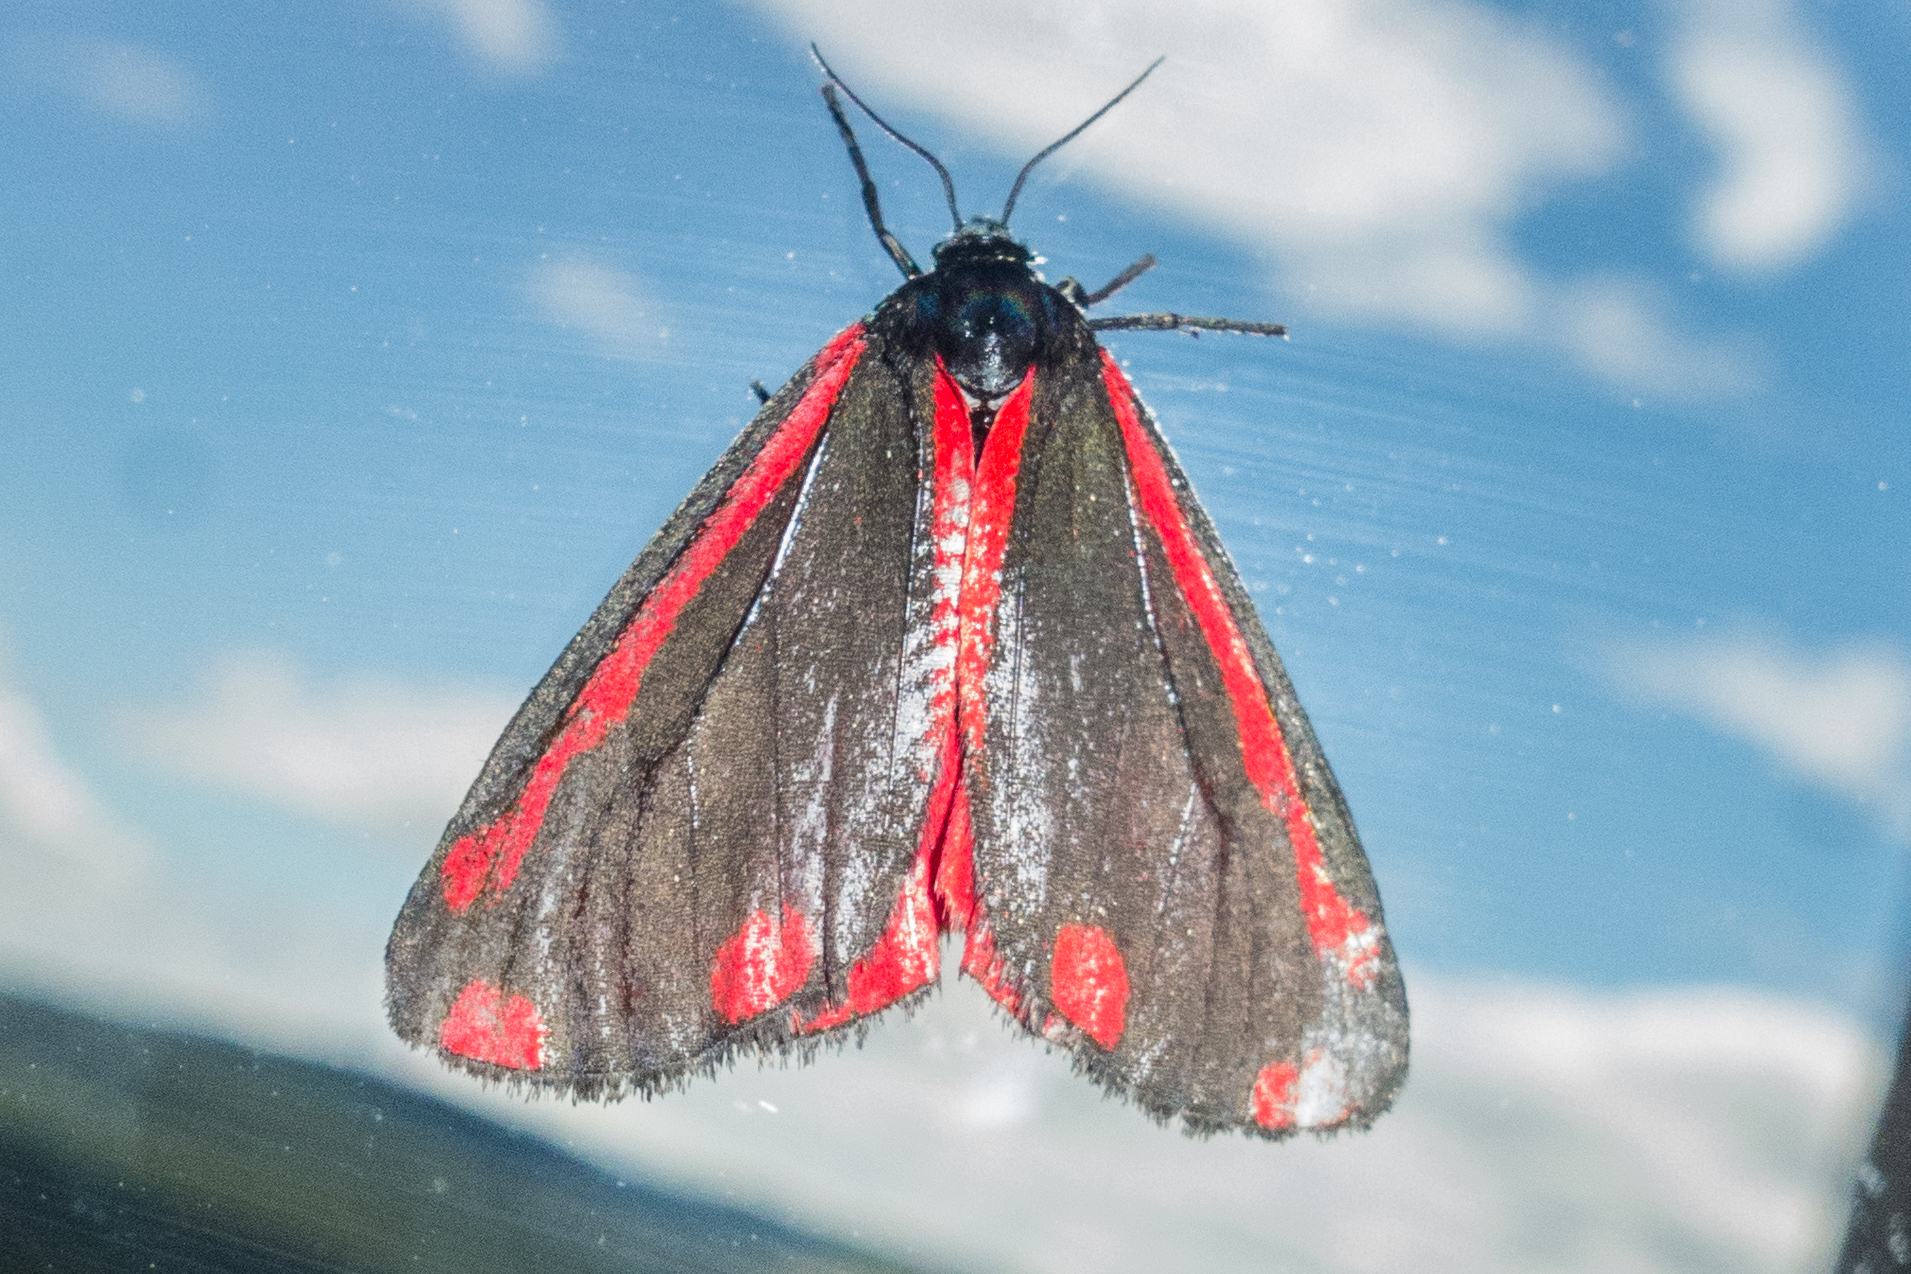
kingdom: Animalia
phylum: Arthropoda
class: Insecta
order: Lepidoptera
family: Erebidae
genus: Tyria
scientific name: Tyria jacobaeae
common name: Cinnabar
